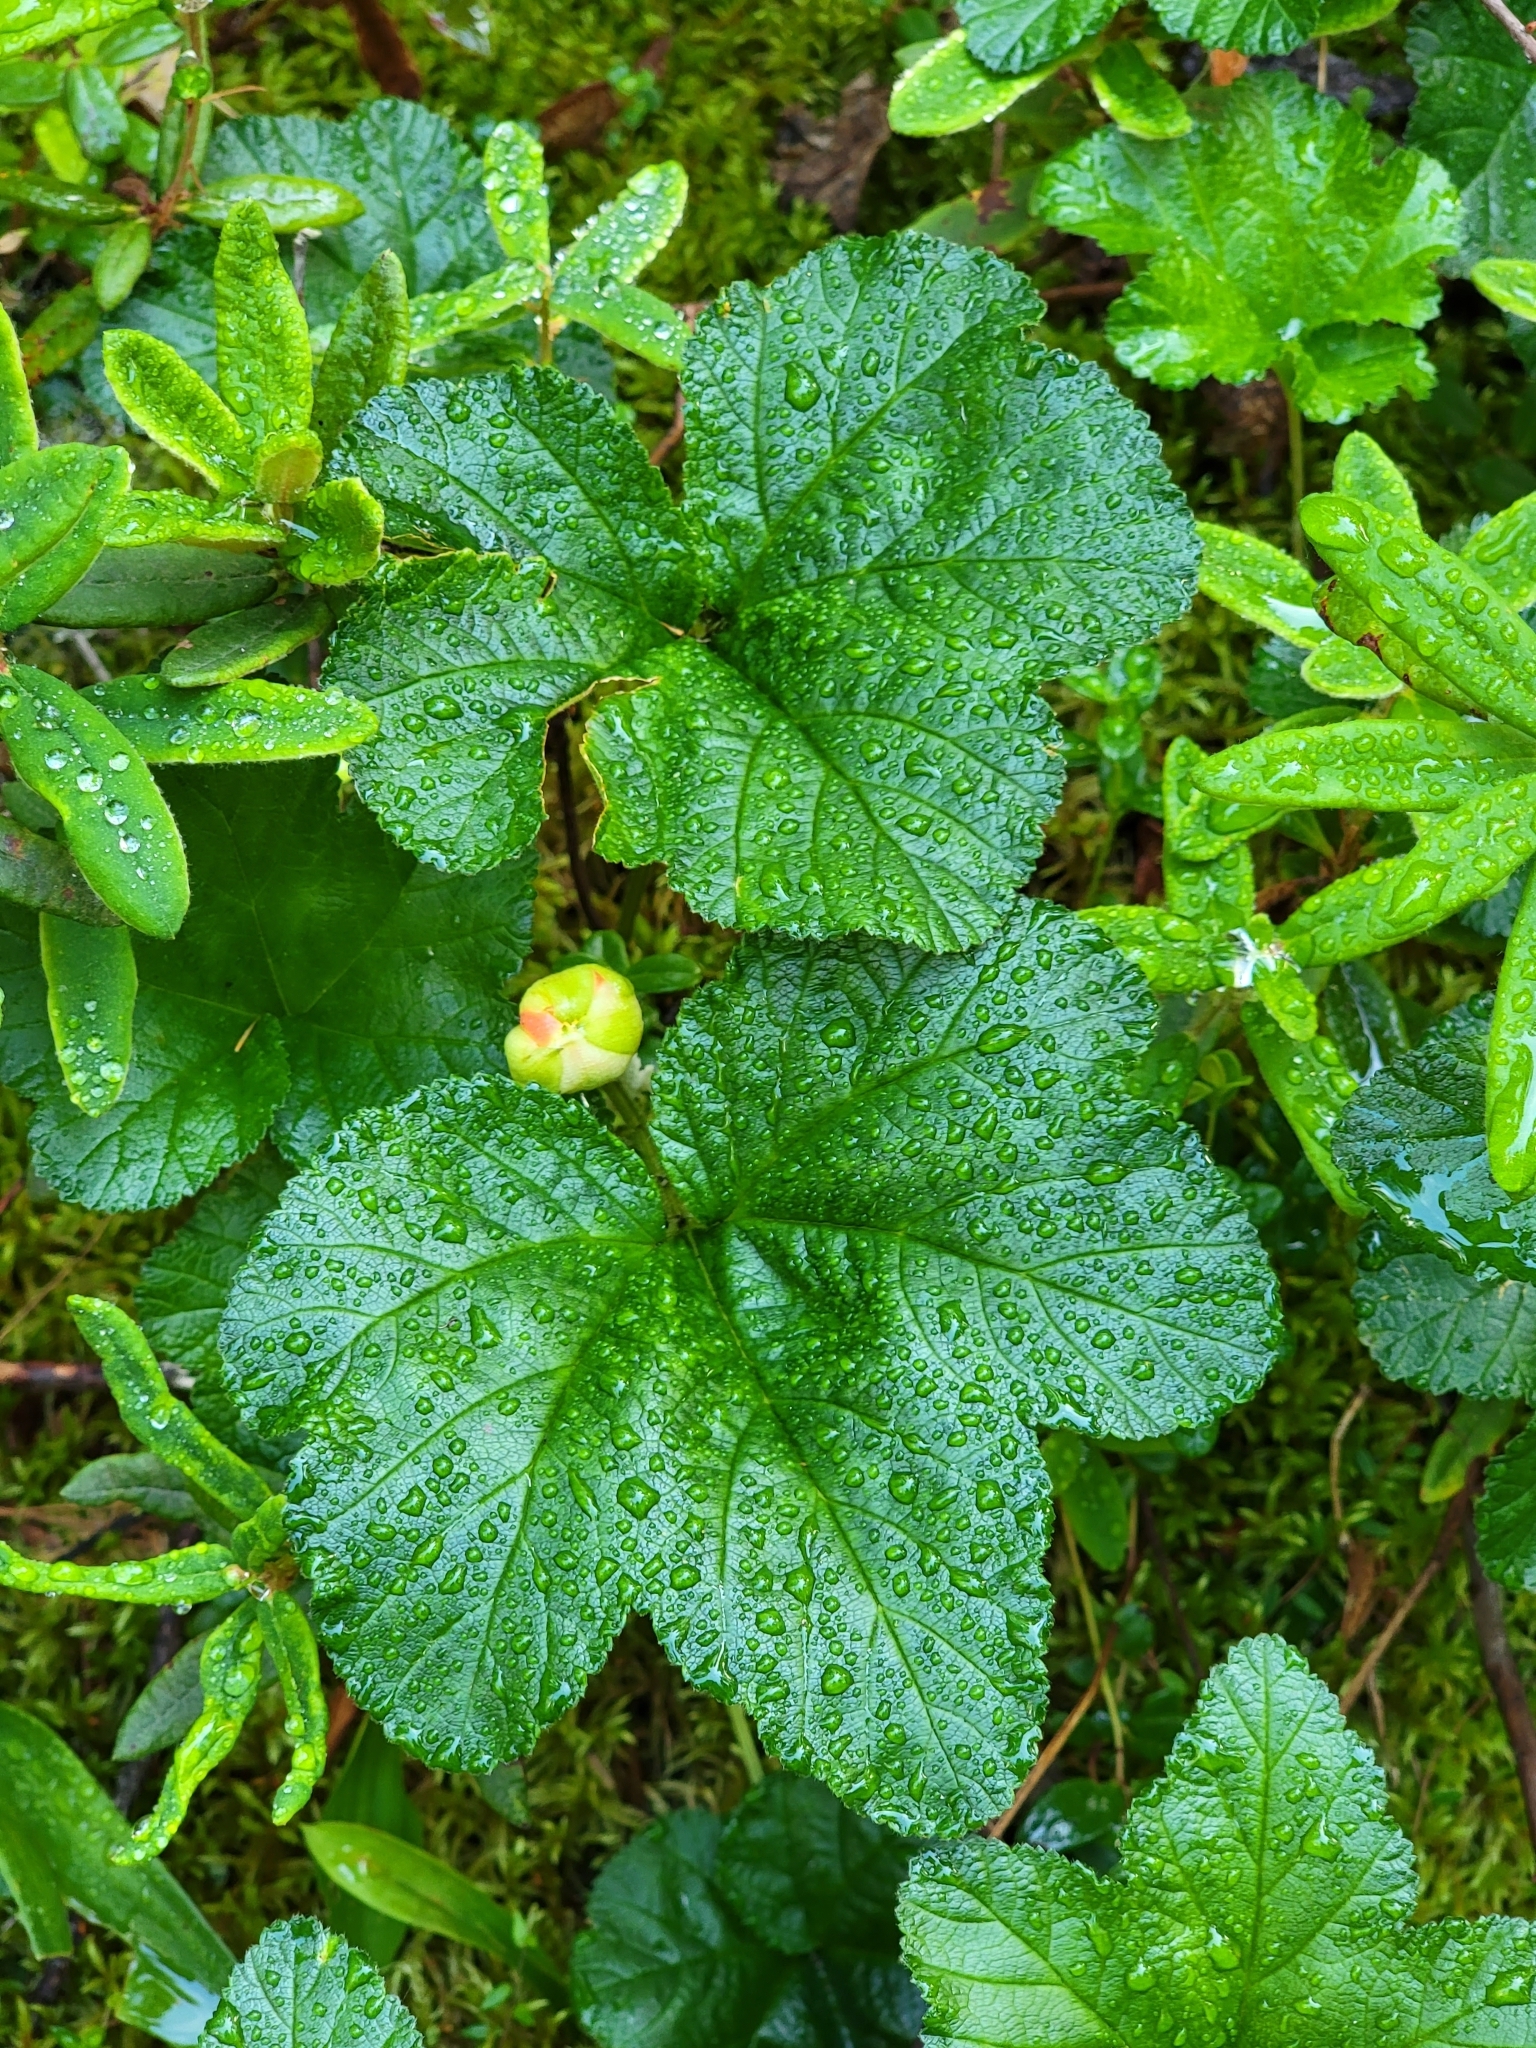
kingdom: Plantae
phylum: Tracheophyta
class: Magnoliopsida
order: Rosales
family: Rosaceae
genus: Rubus
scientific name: Rubus chamaemorus
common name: Cloudberry
